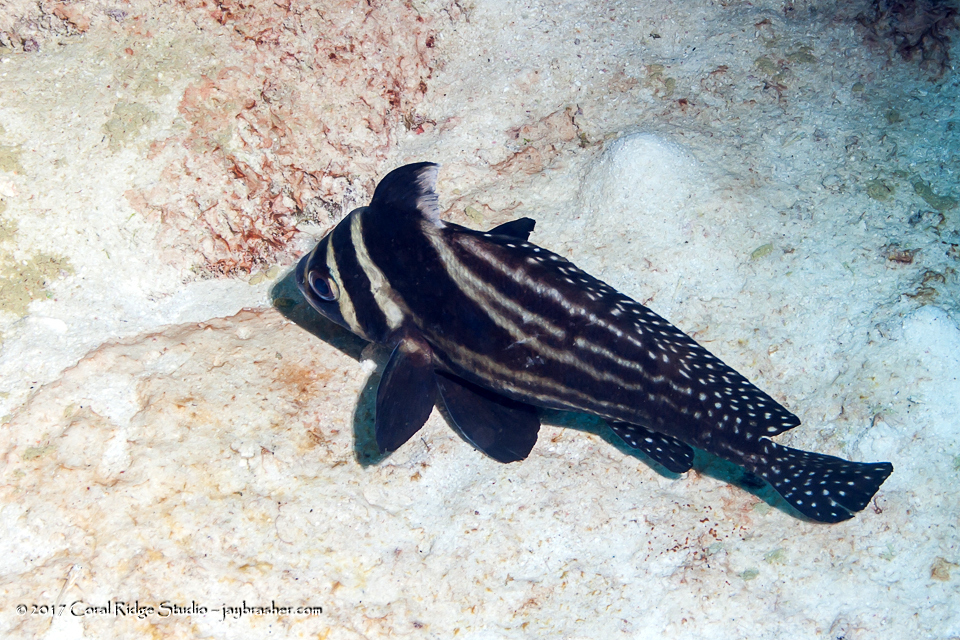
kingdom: Animalia
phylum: Chordata
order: Perciformes
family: Sciaenidae
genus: Equetus
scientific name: Equetus punctatus
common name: Spotted drum
